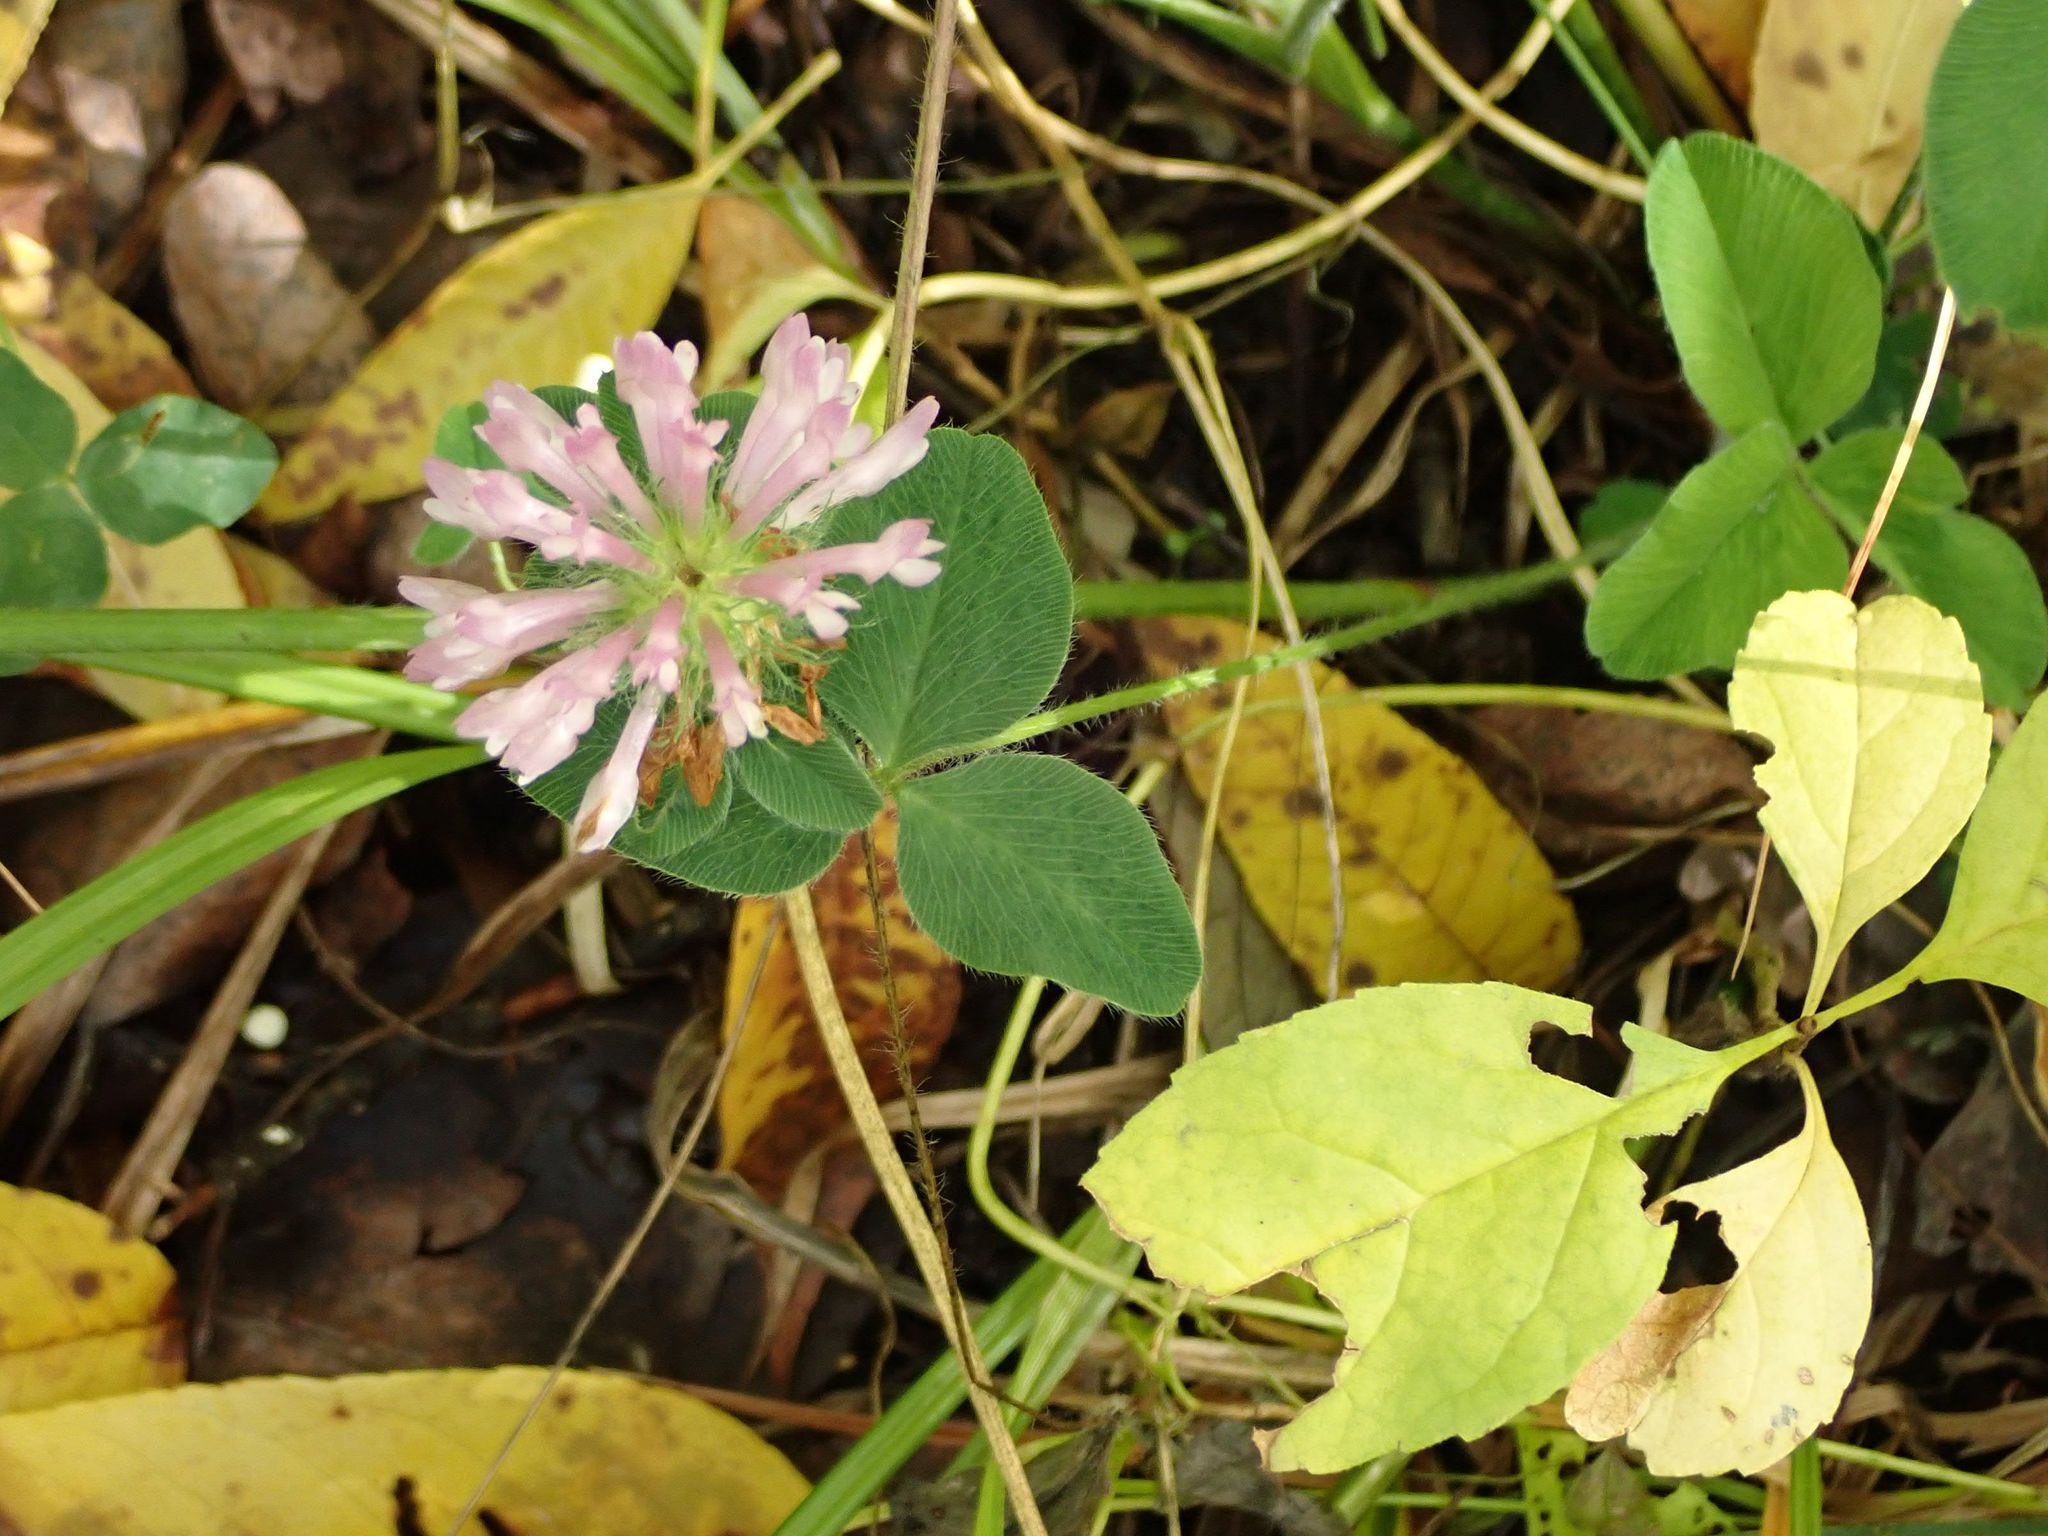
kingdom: Plantae
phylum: Tracheophyta
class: Magnoliopsida
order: Fabales
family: Fabaceae
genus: Trifolium
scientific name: Trifolium pratense
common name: Red clover
